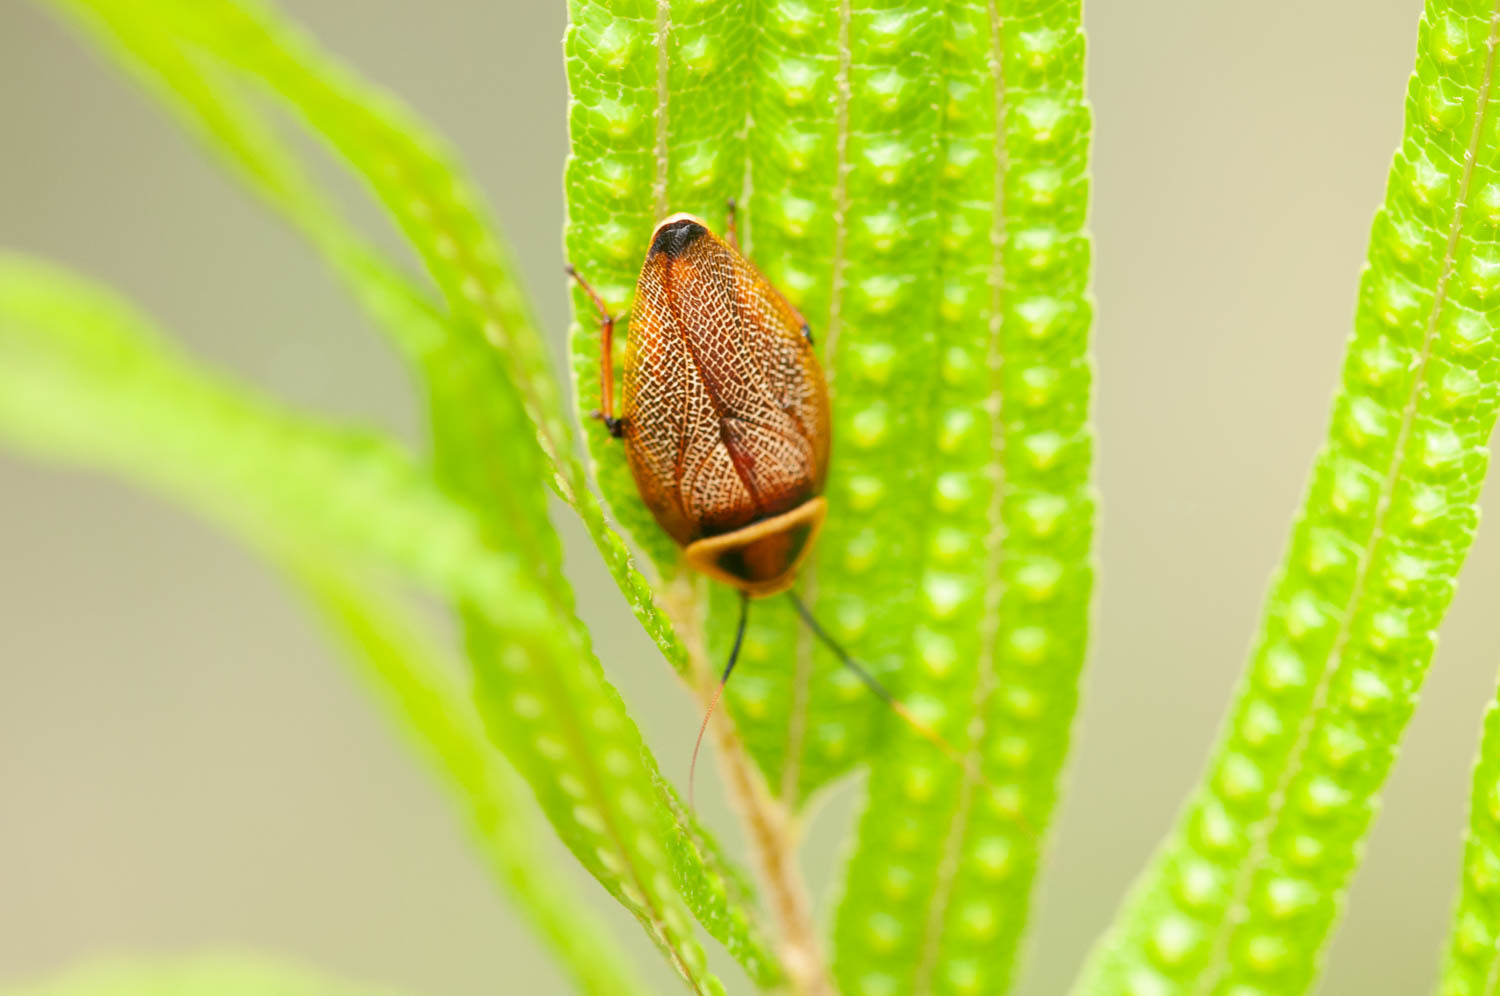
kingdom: Animalia
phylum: Arthropoda
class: Insecta
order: Blattodea
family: Ectobiidae
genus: Ellipsidion
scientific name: Ellipsidion reticulatum
